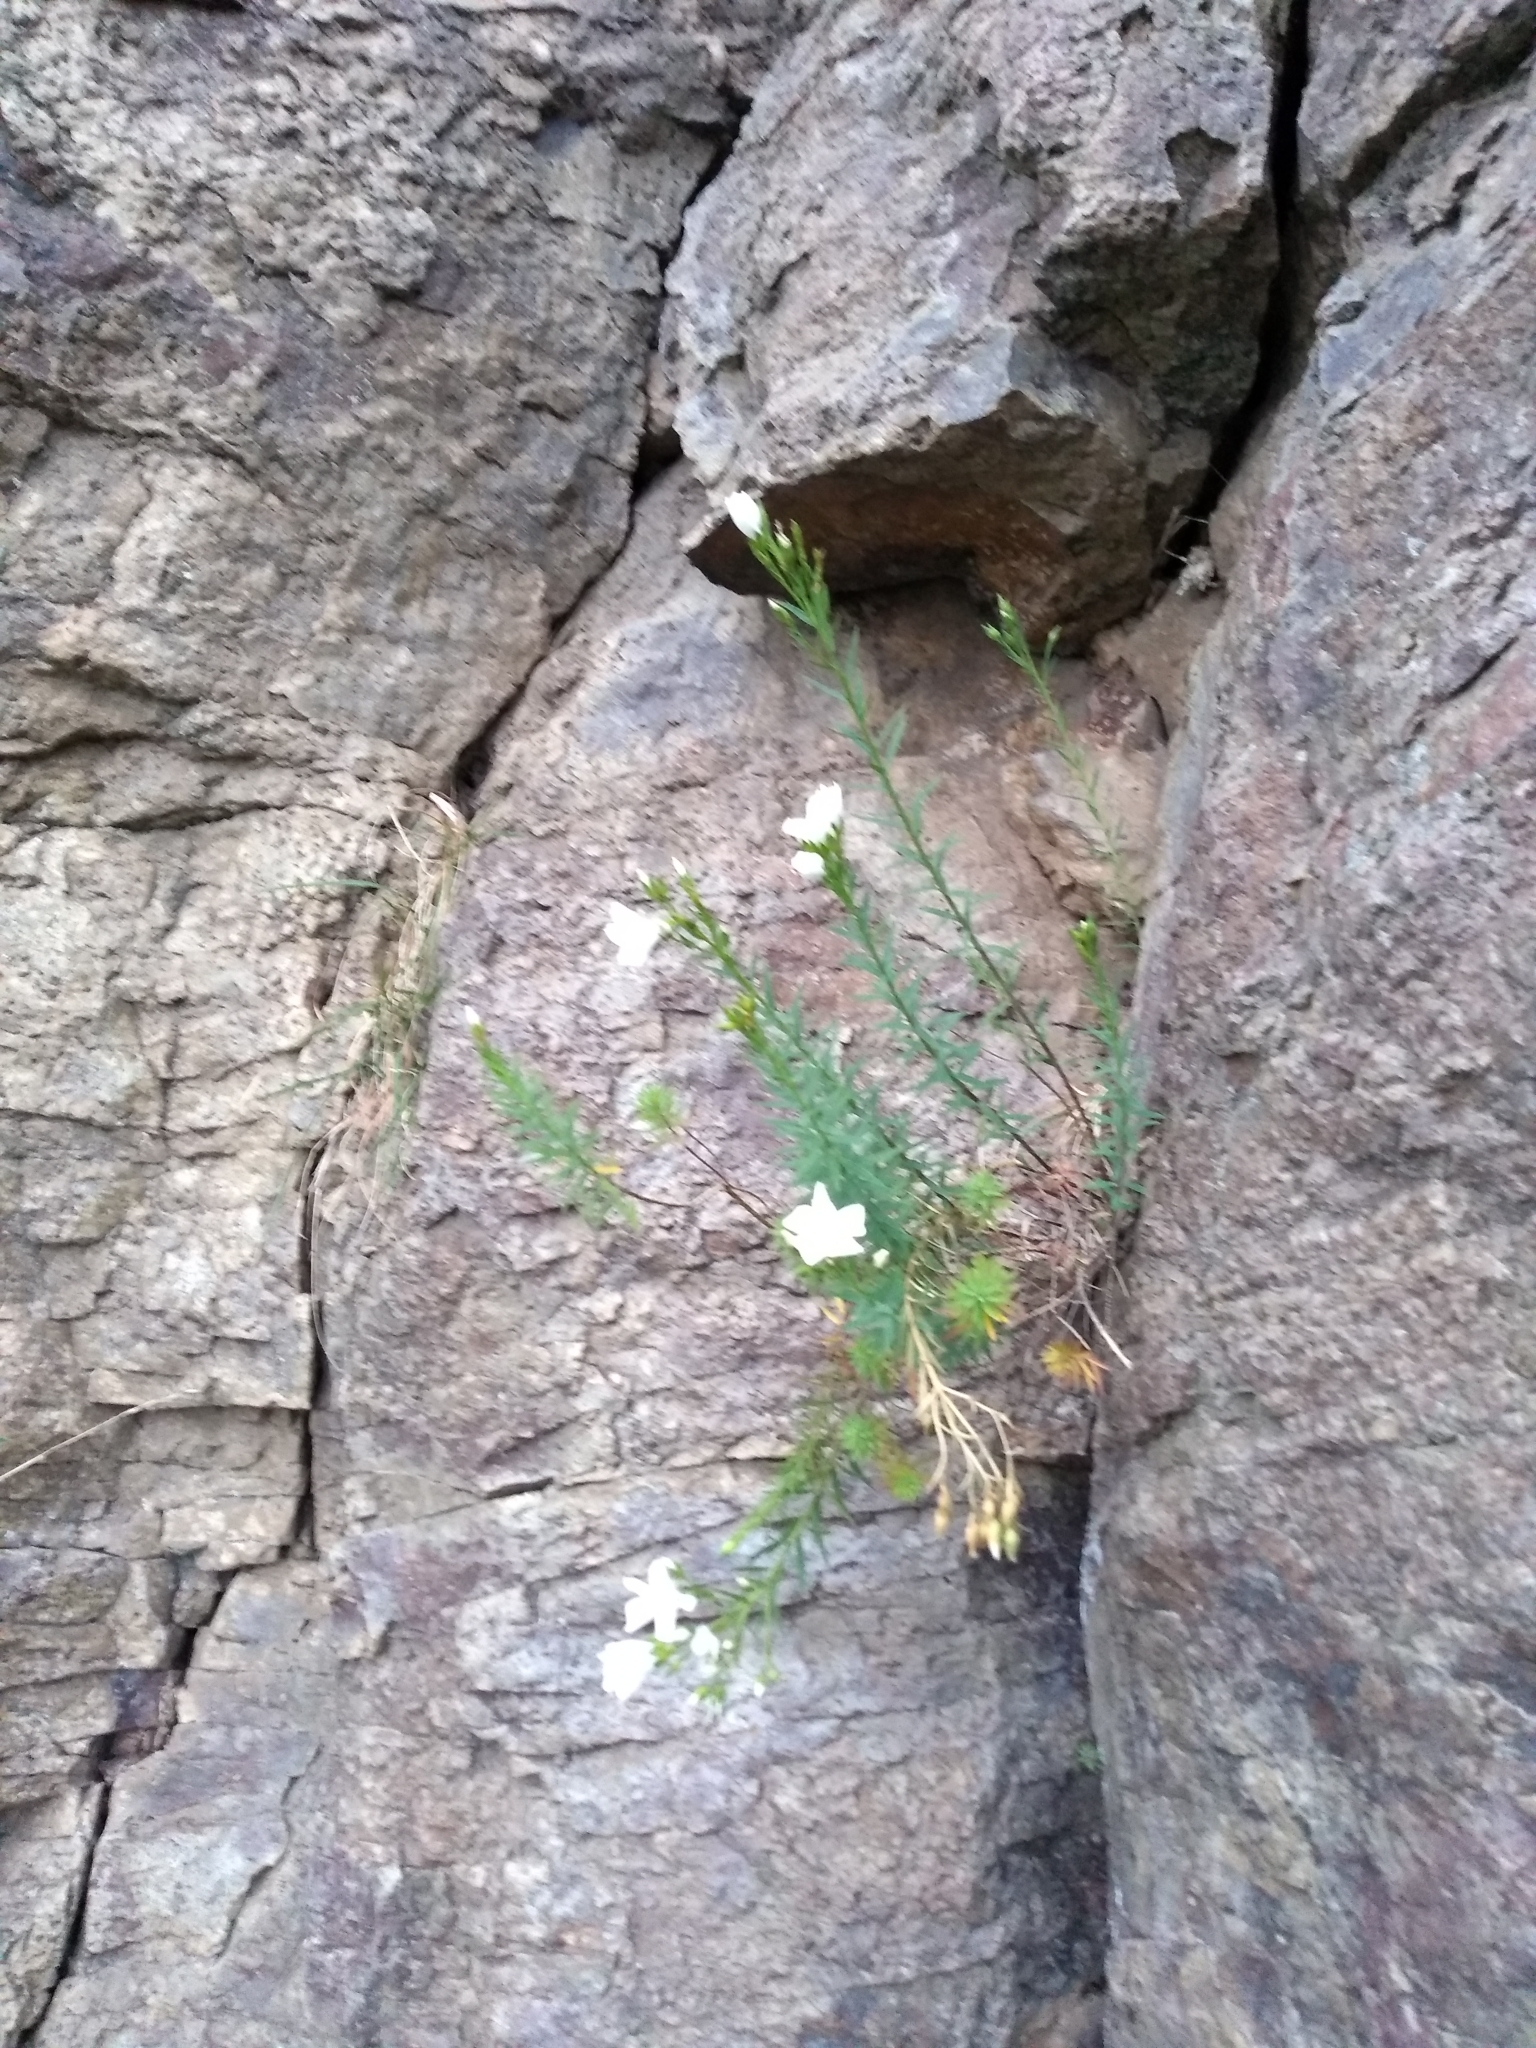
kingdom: Plantae
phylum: Tracheophyta
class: Magnoliopsida
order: Malpighiales
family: Linaceae
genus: Linum
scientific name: Linum monogynum
